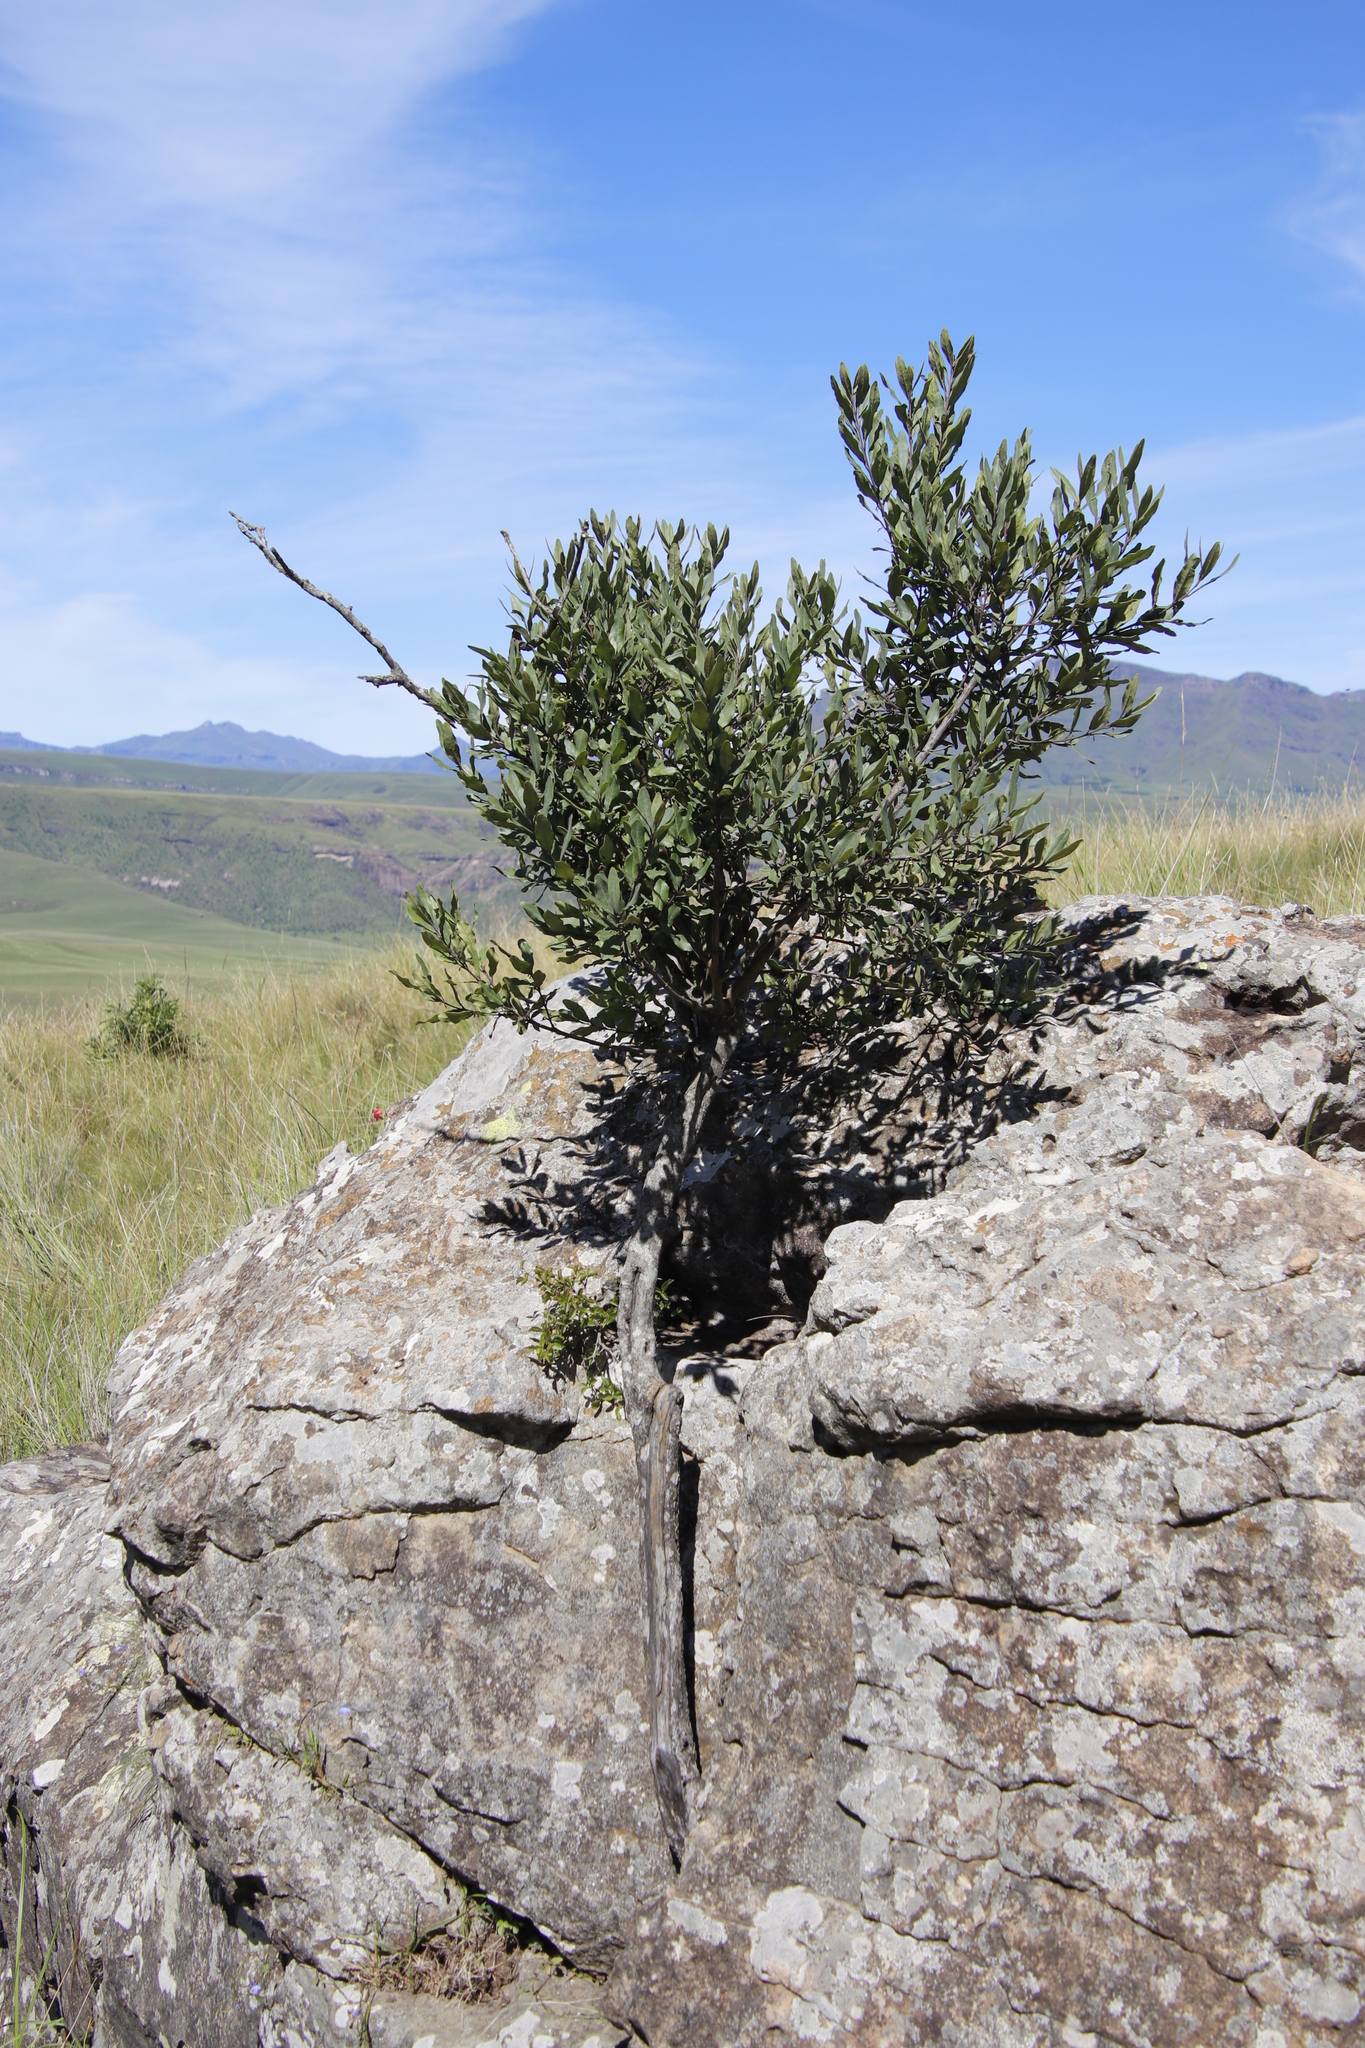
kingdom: Plantae
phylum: Tracheophyta
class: Magnoliopsida
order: Ericales
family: Ebenaceae
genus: Euclea
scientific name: Euclea crispa
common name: Blue guarri
